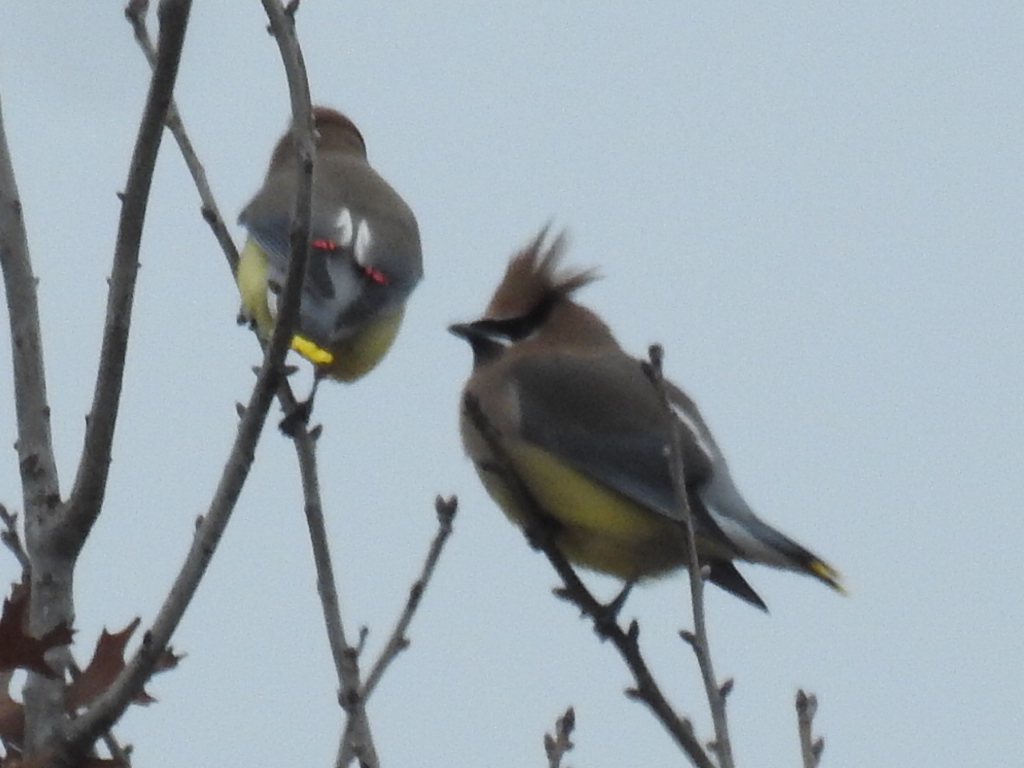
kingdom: Animalia
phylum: Chordata
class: Aves
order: Passeriformes
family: Bombycillidae
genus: Bombycilla
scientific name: Bombycilla cedrorum
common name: Cedar waxwing
